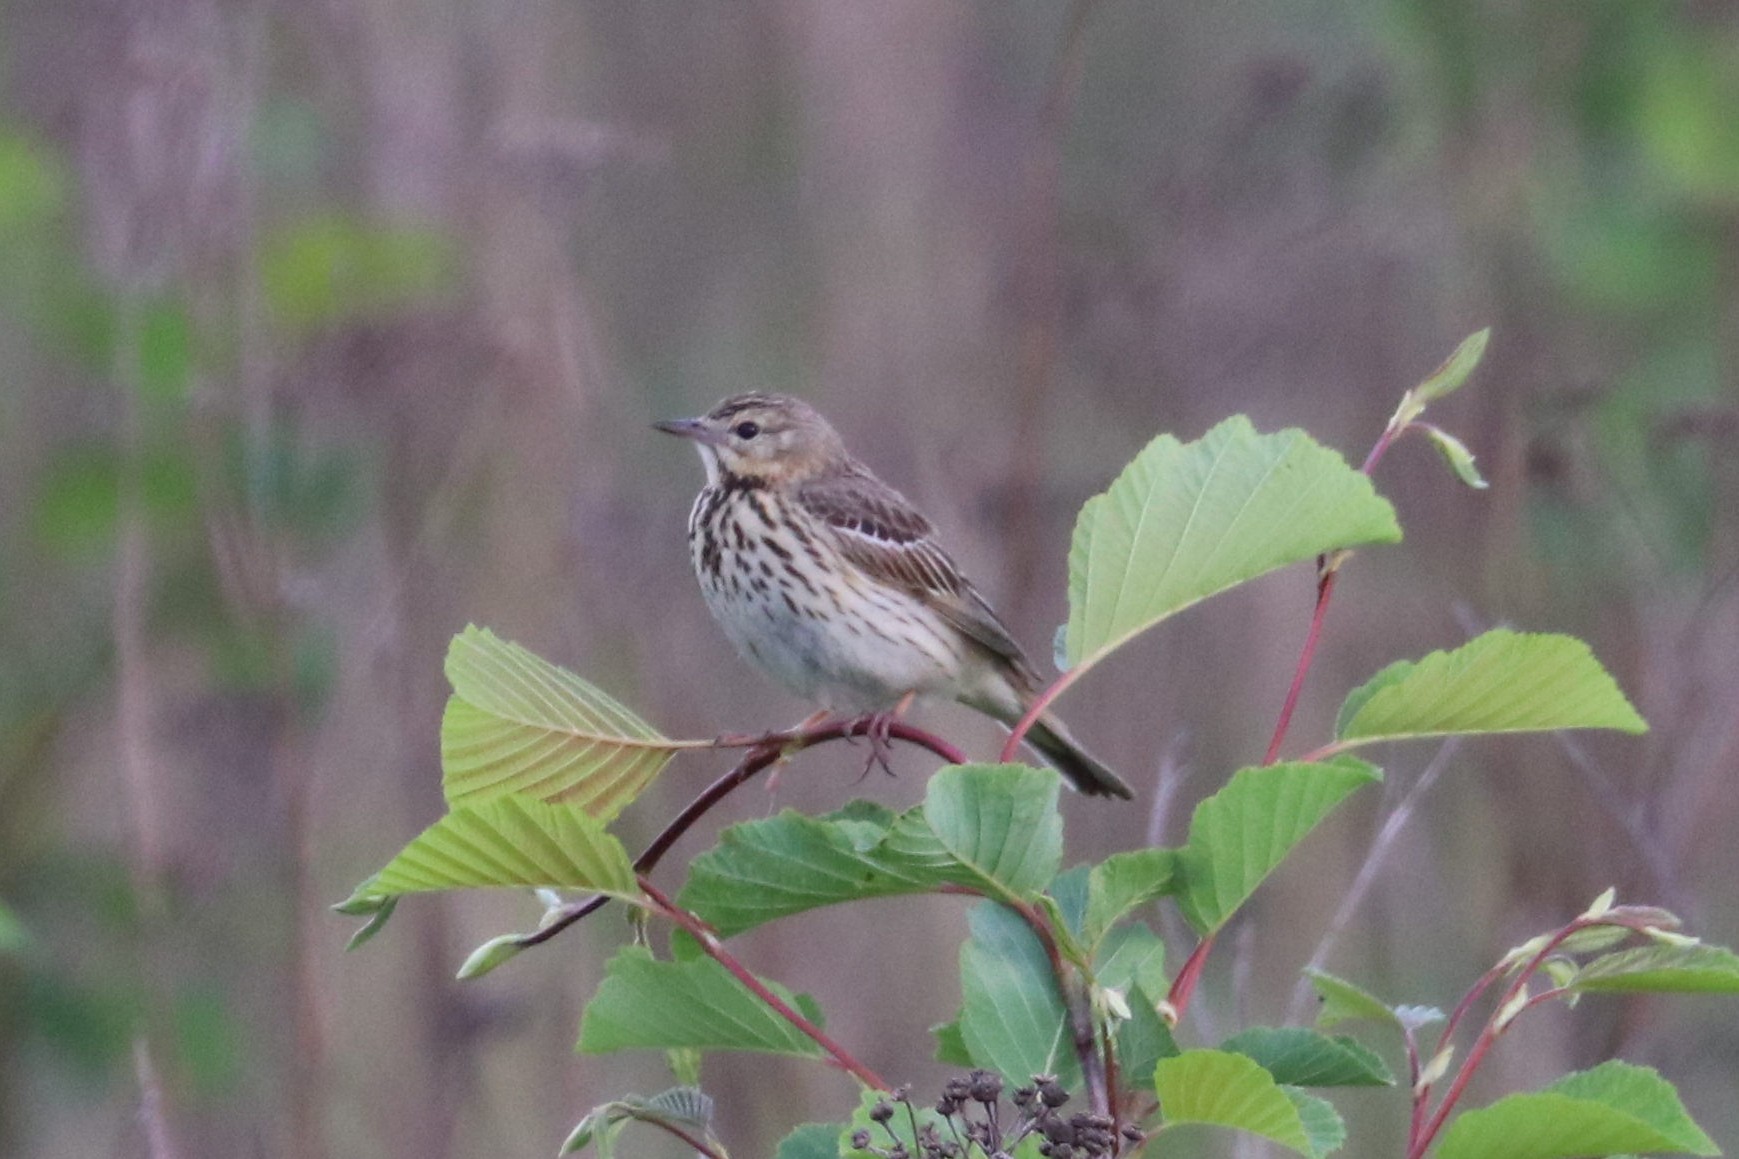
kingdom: Animalia
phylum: Chordata
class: Aves
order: Passeriformes
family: Motacillidae
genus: Anthus
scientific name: Anthus trivialis
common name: Tree pipit
